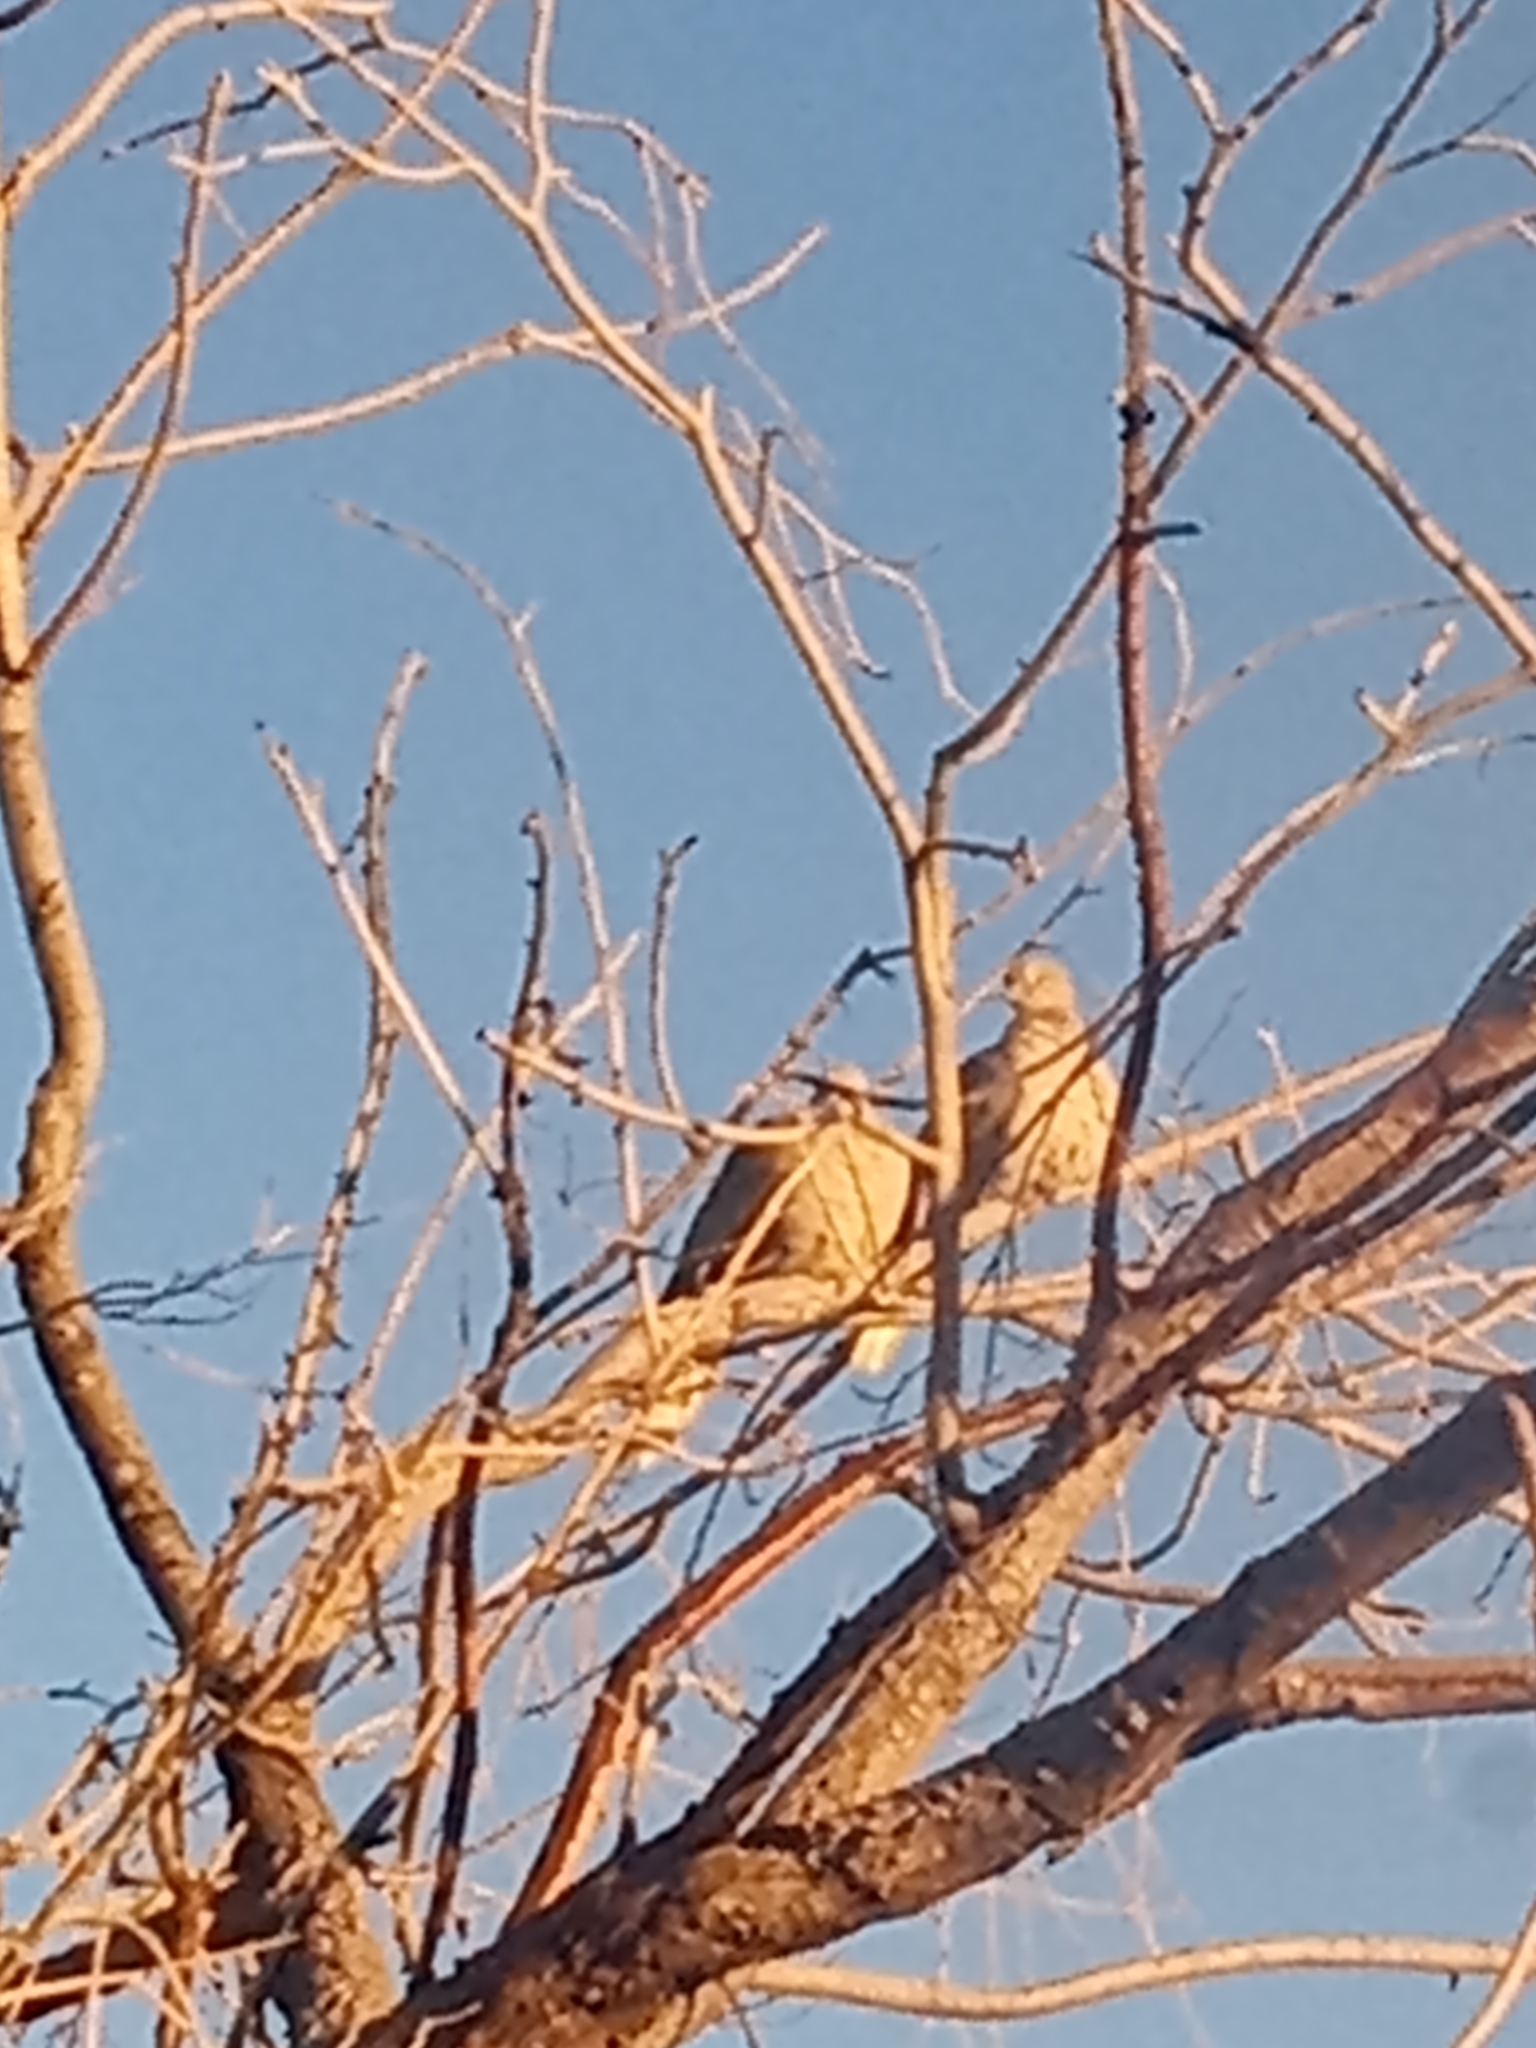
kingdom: Animalia
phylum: Chordata
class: Aves
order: Columbiformes
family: Columbidae
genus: Streptopelia
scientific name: Streptopelia decaocto
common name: Eurasian collared dove
